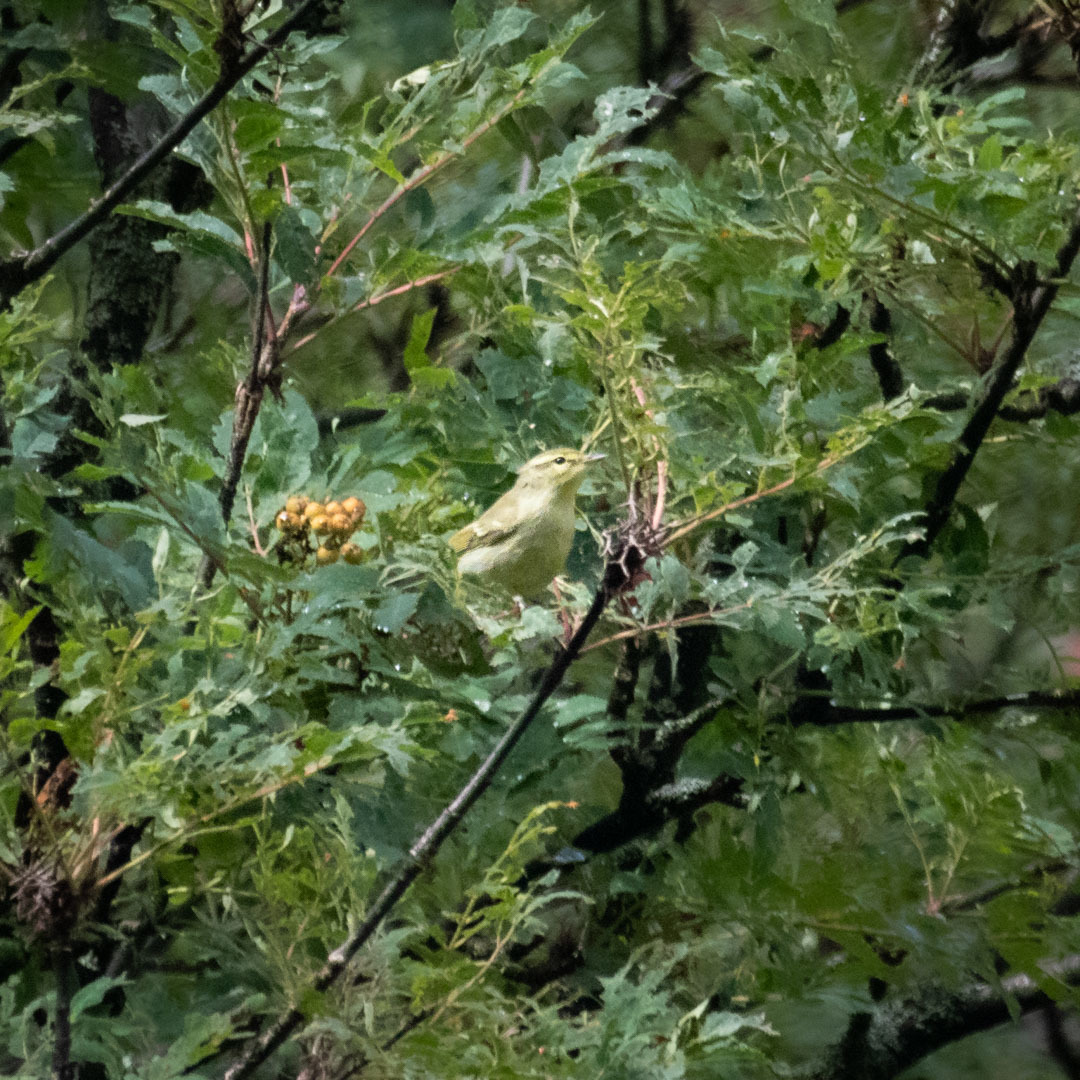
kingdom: Animalia
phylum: Chordata
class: Aves
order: Passeriformes
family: Phylloscopidae
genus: Phylloscopus
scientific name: Phylloscopus nitidus
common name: Green warbler
